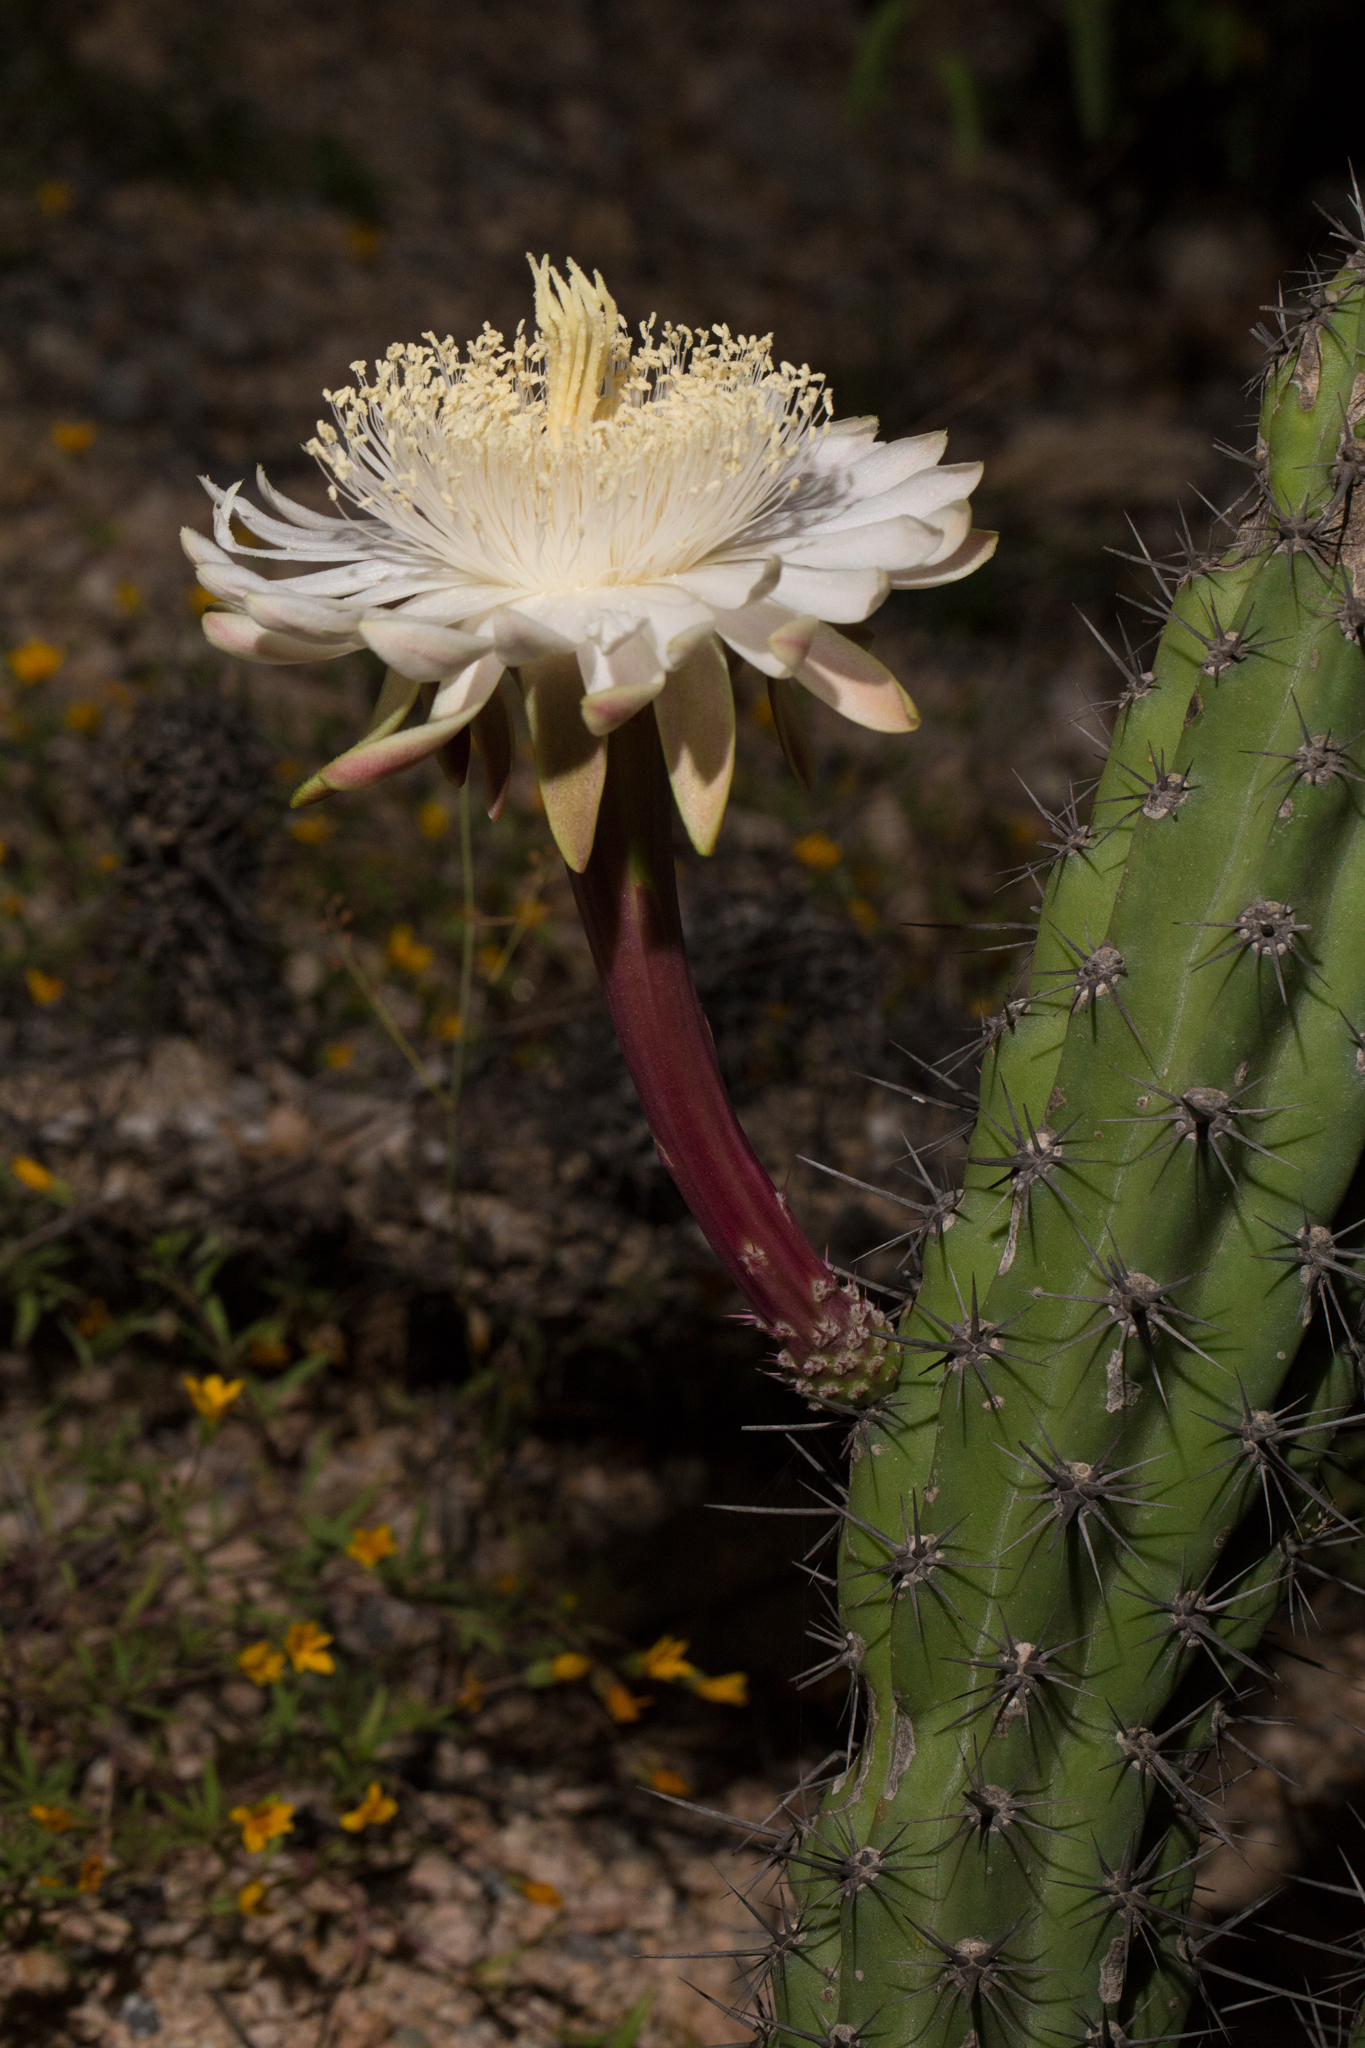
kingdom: Plantae
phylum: Tracheophyta
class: Magnoliopsida
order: Caryophyllales
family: Cactaceae
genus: Stenocereus
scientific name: Stenocereus gummosus
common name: Dagger cactus
